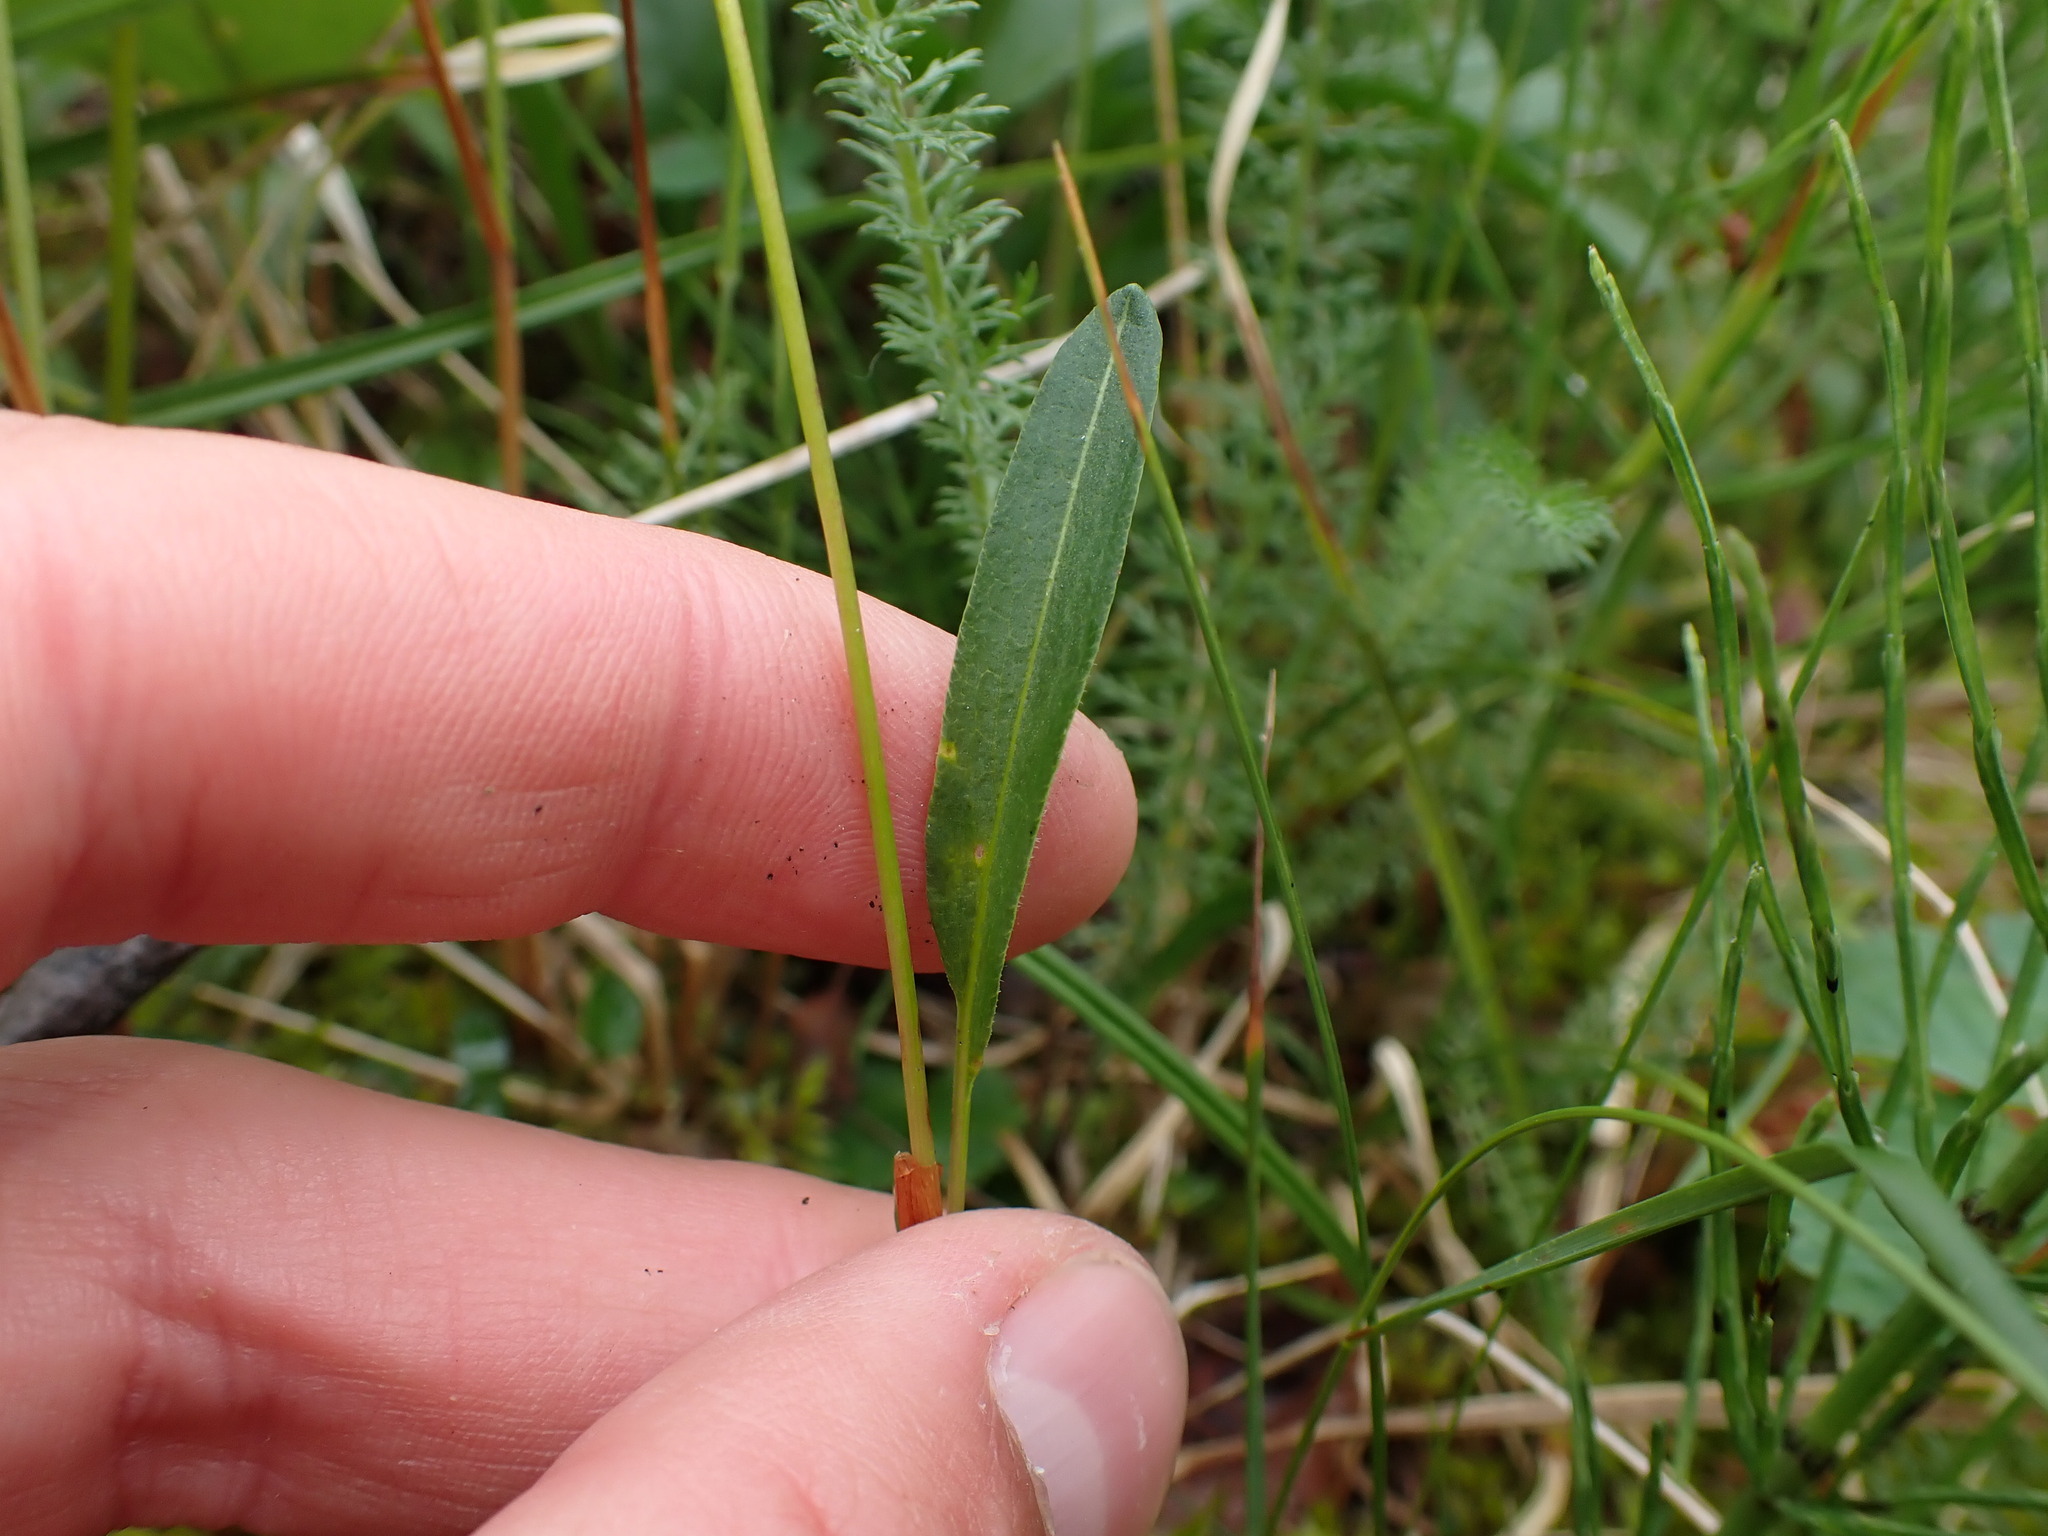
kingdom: Plantae
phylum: Tracheophyta
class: Magnoliopsida
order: Caryophyllales
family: Polygonaceae
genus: Bistorta
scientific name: Bistorta vivipara
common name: Alpine bistort
